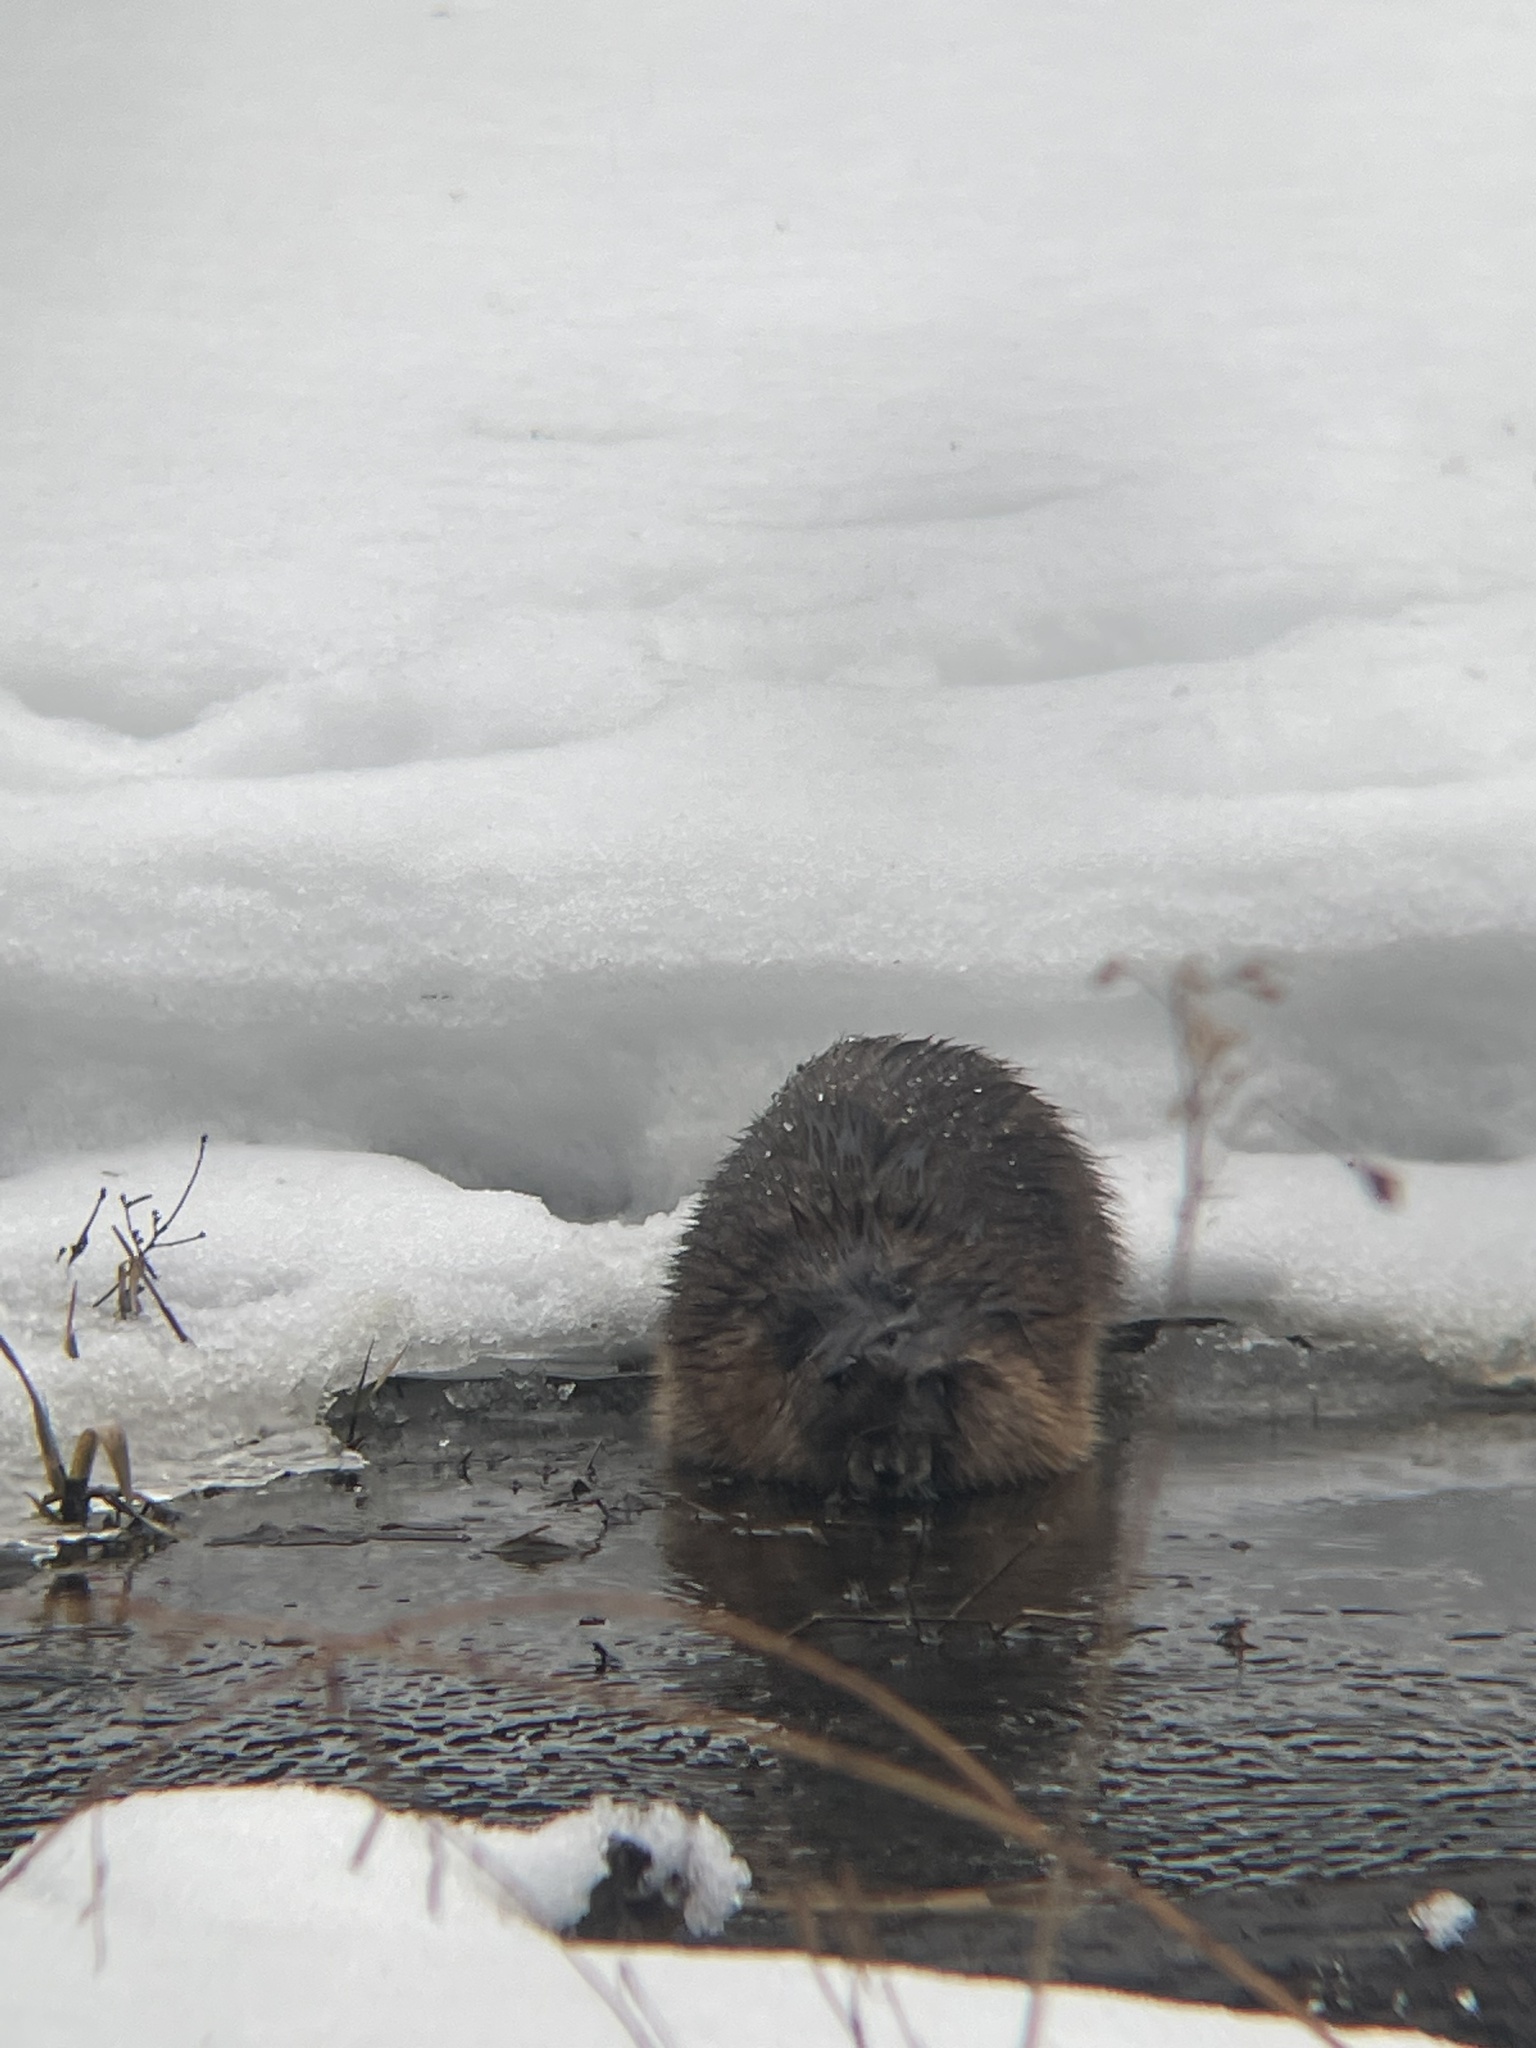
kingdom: Animalia
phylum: Chordata
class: Mammalia
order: Rodentia
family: Cricetidae
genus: Ondatra
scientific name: Ondatra zibethicus
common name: Muskrat
